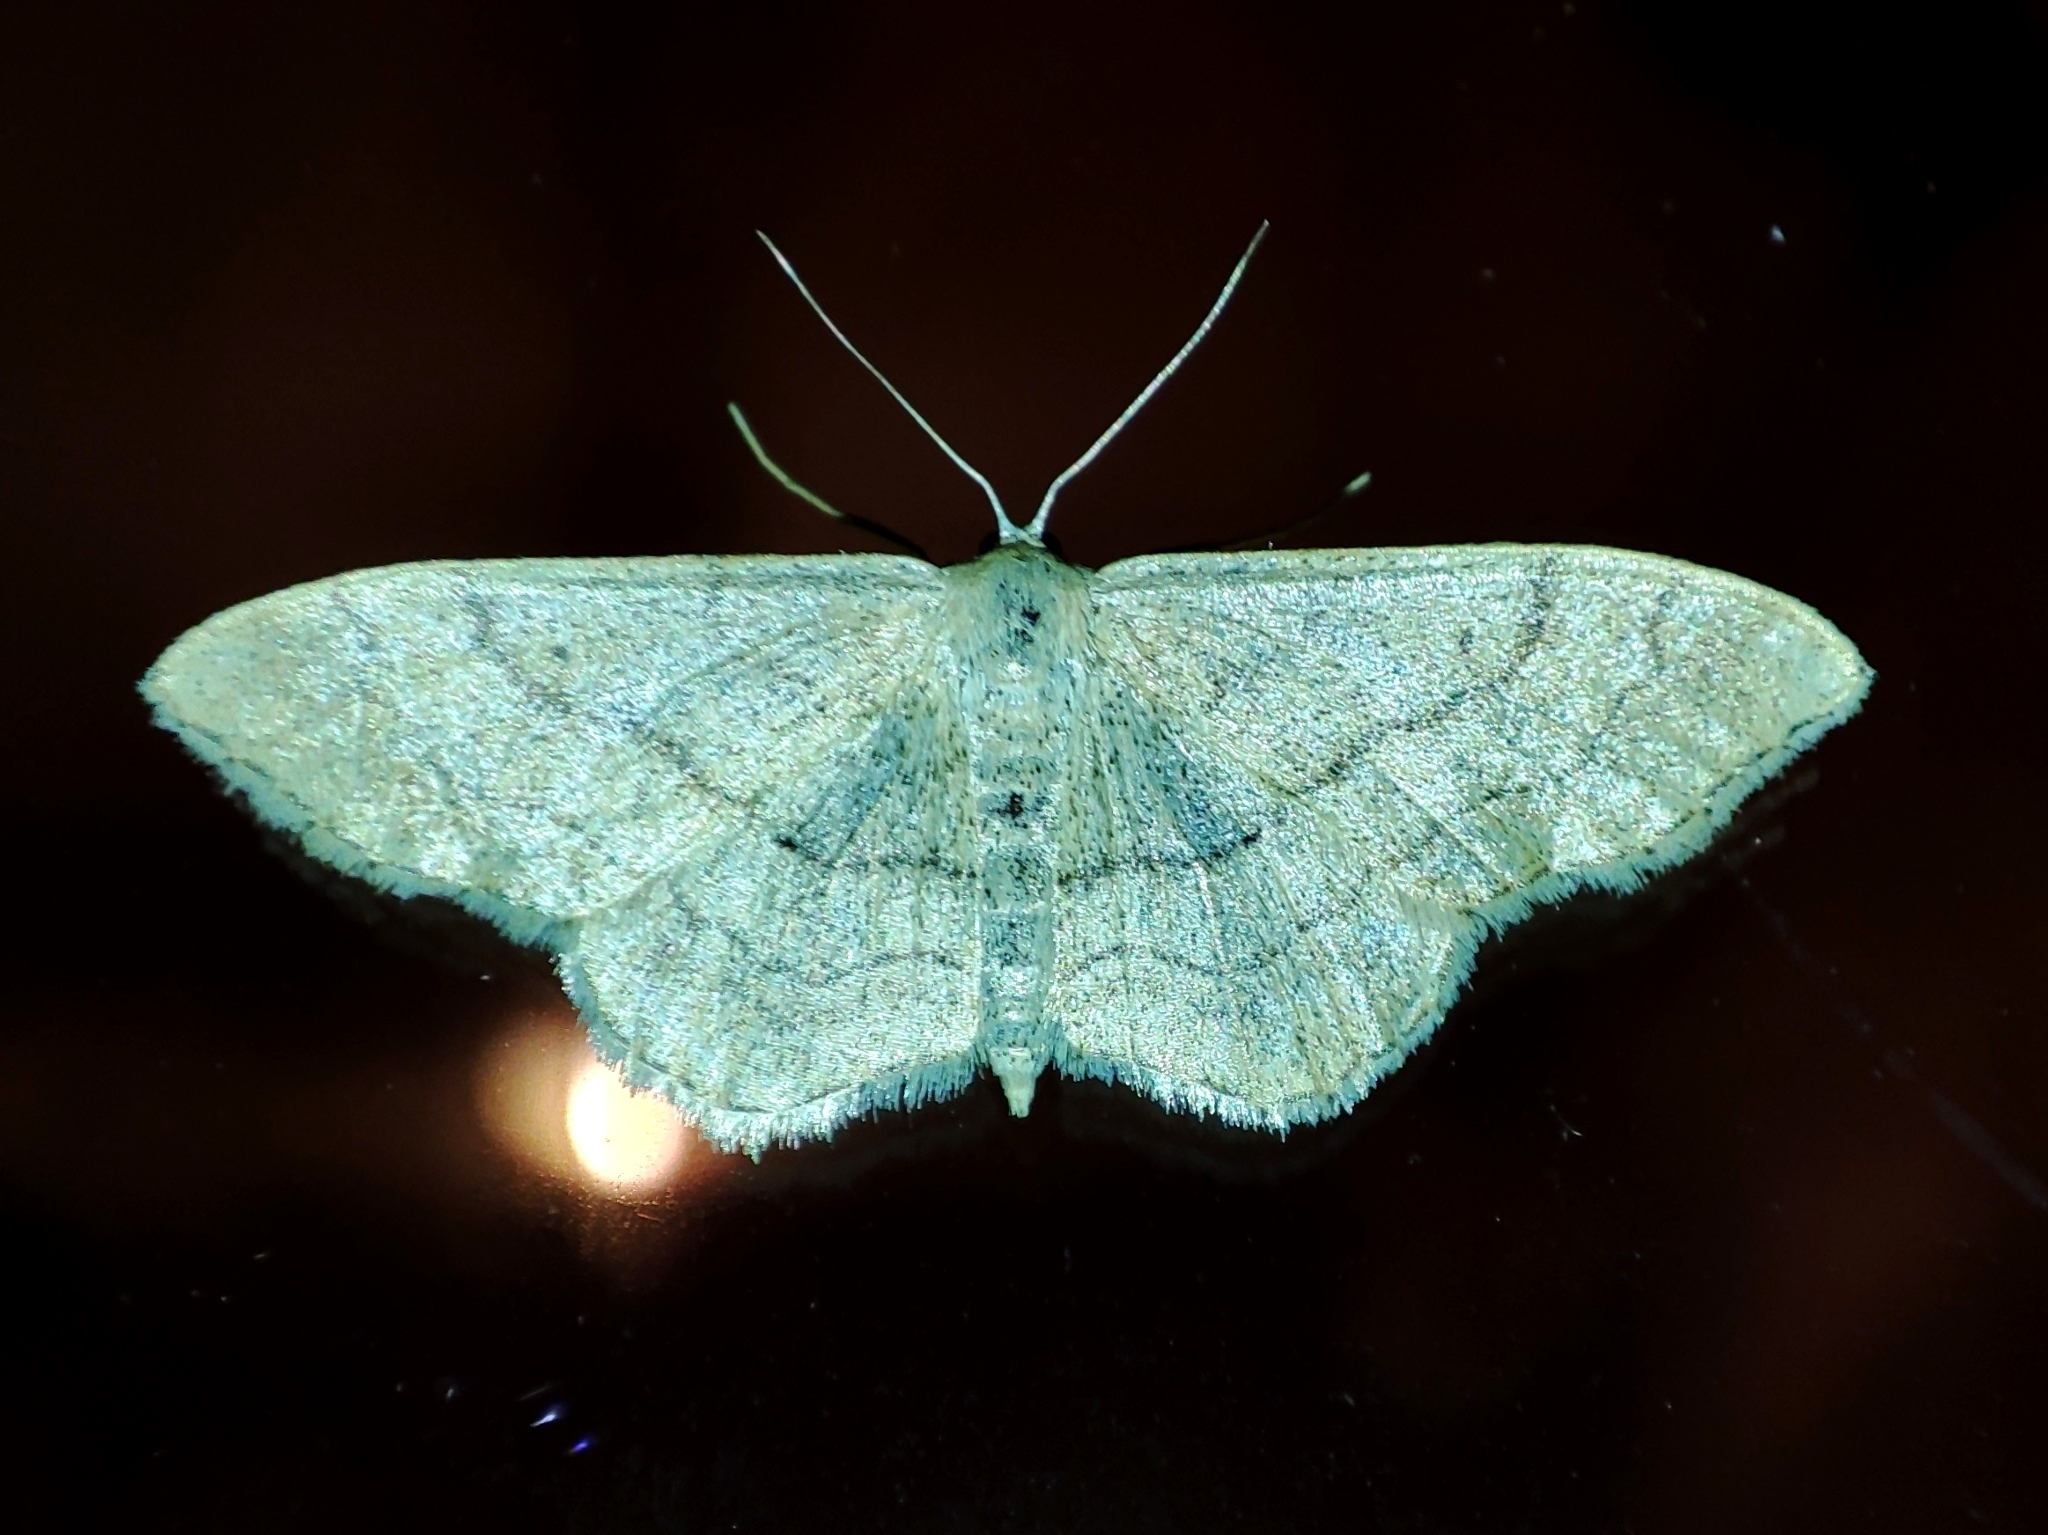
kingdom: Animalia
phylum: Arthropoda
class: Insecta
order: Lepidoptera
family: Geometridae
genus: Idaea
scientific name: Idaea aversata
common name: Riband wave
